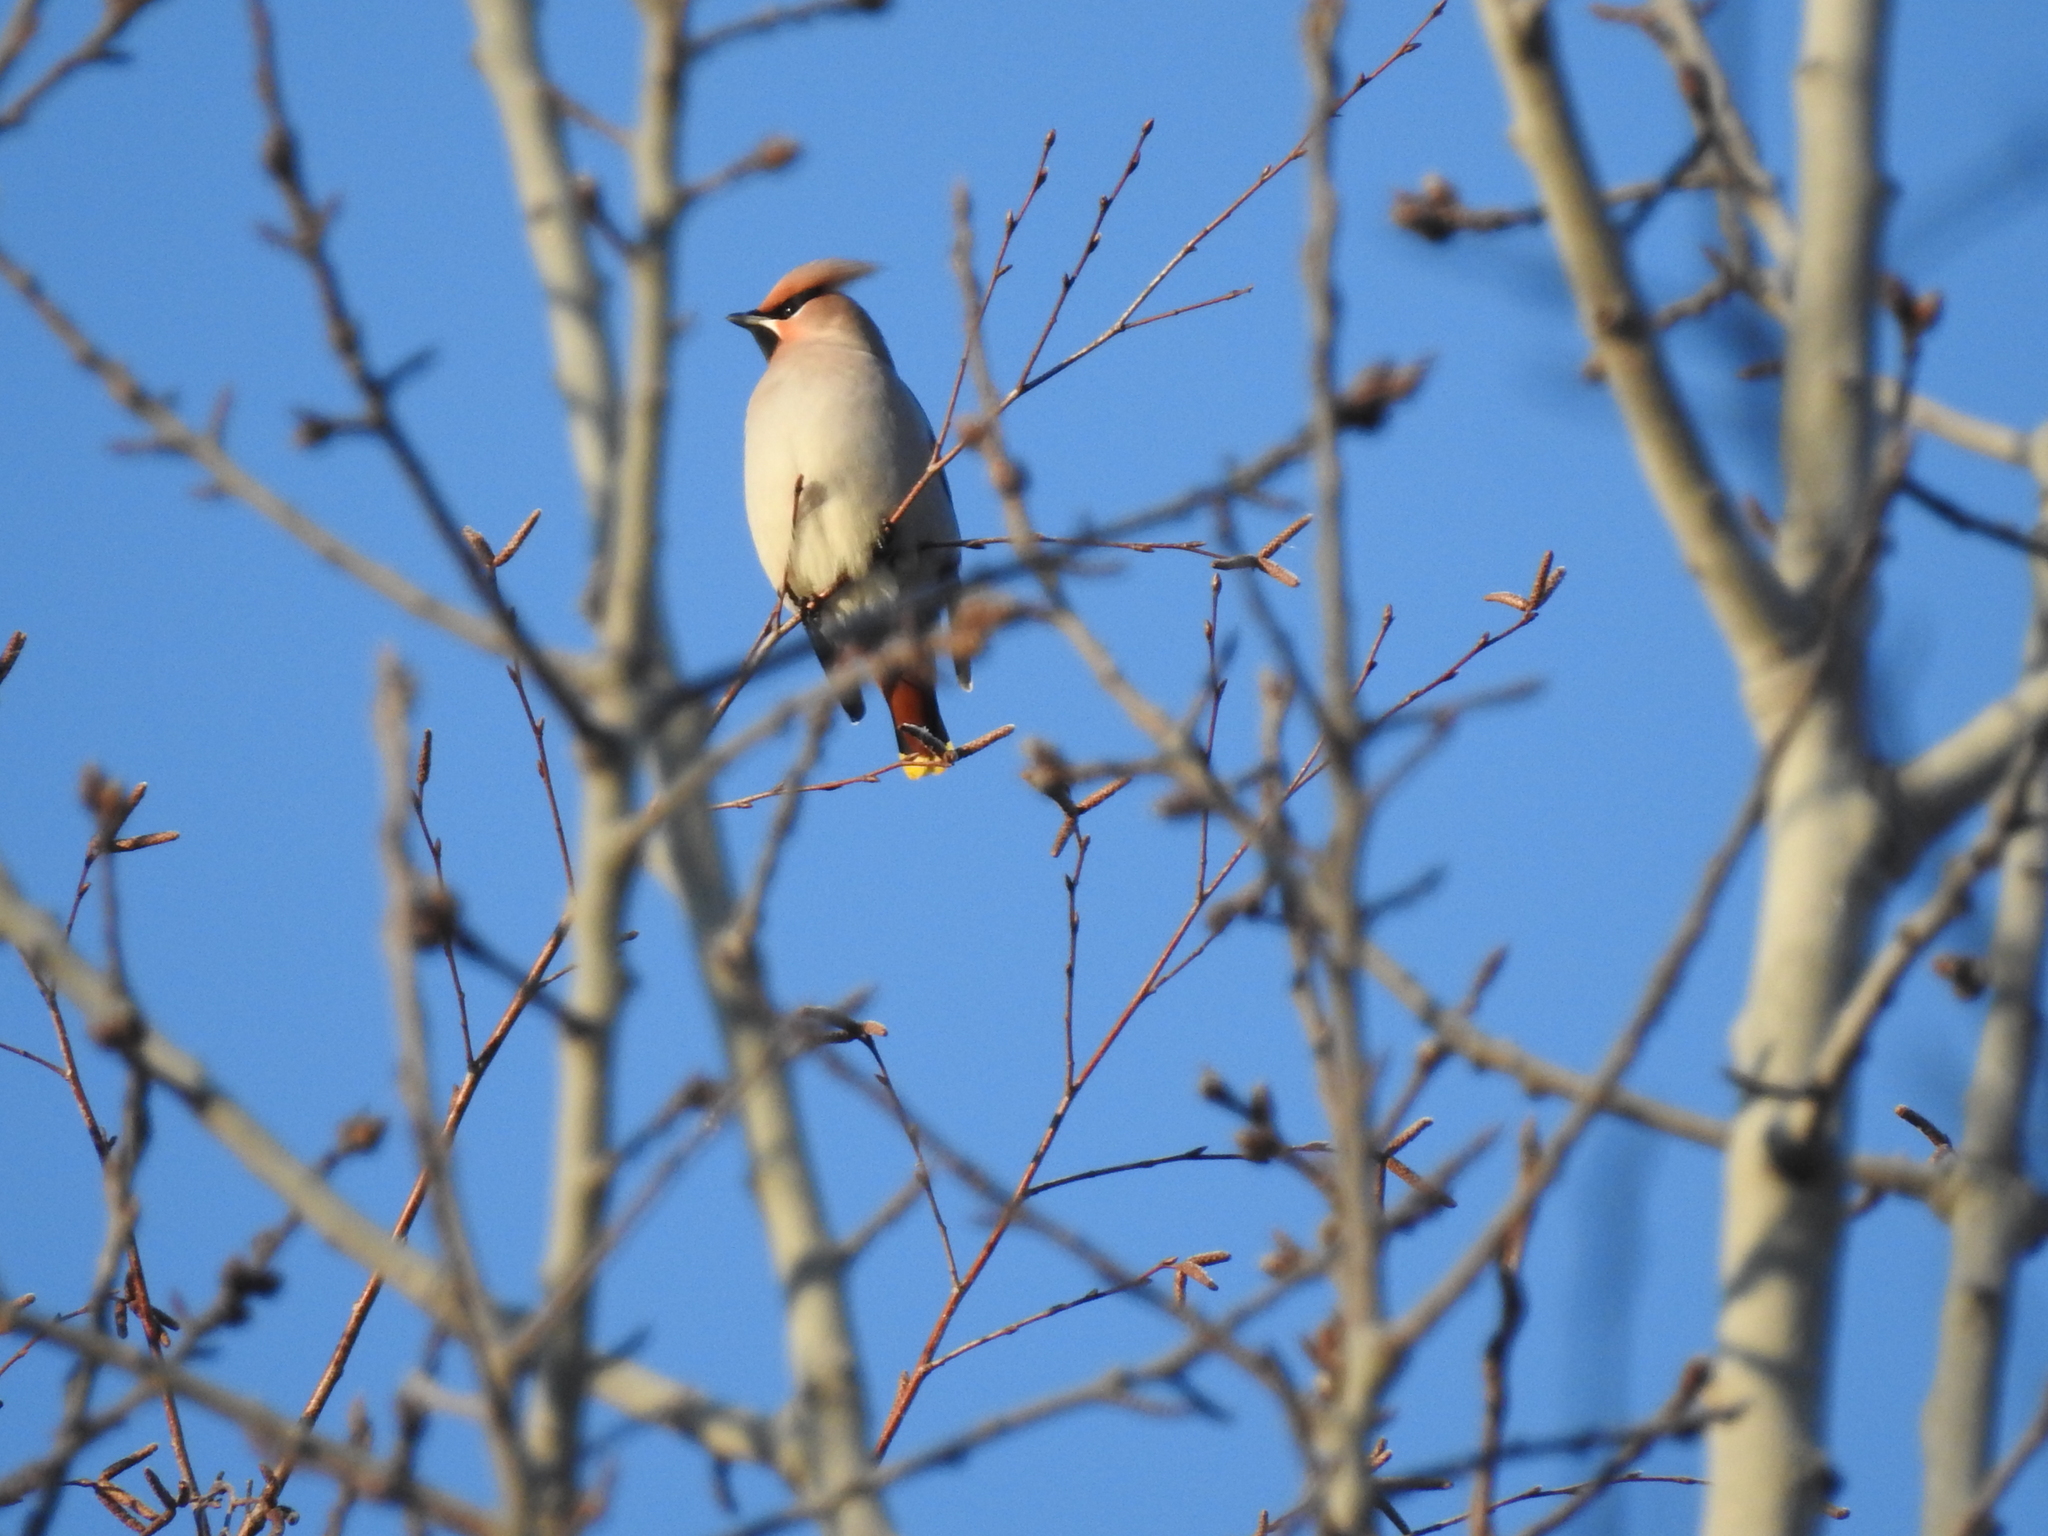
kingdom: Animalia
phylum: Chordata
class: Aves
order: Passeriformes
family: Bombycillidae
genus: Bombycilla
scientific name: Bombycilla garrulus
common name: Bohemian waxwing
